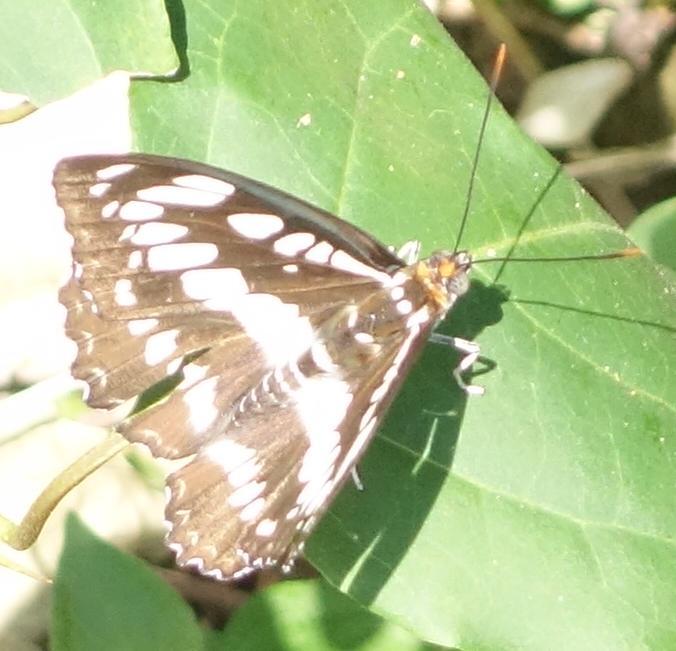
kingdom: Animalia
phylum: Arthropoda
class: Insecta
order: Lepidoptera
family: Nymphalidae
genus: Parathyma
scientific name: Parathyma perius
